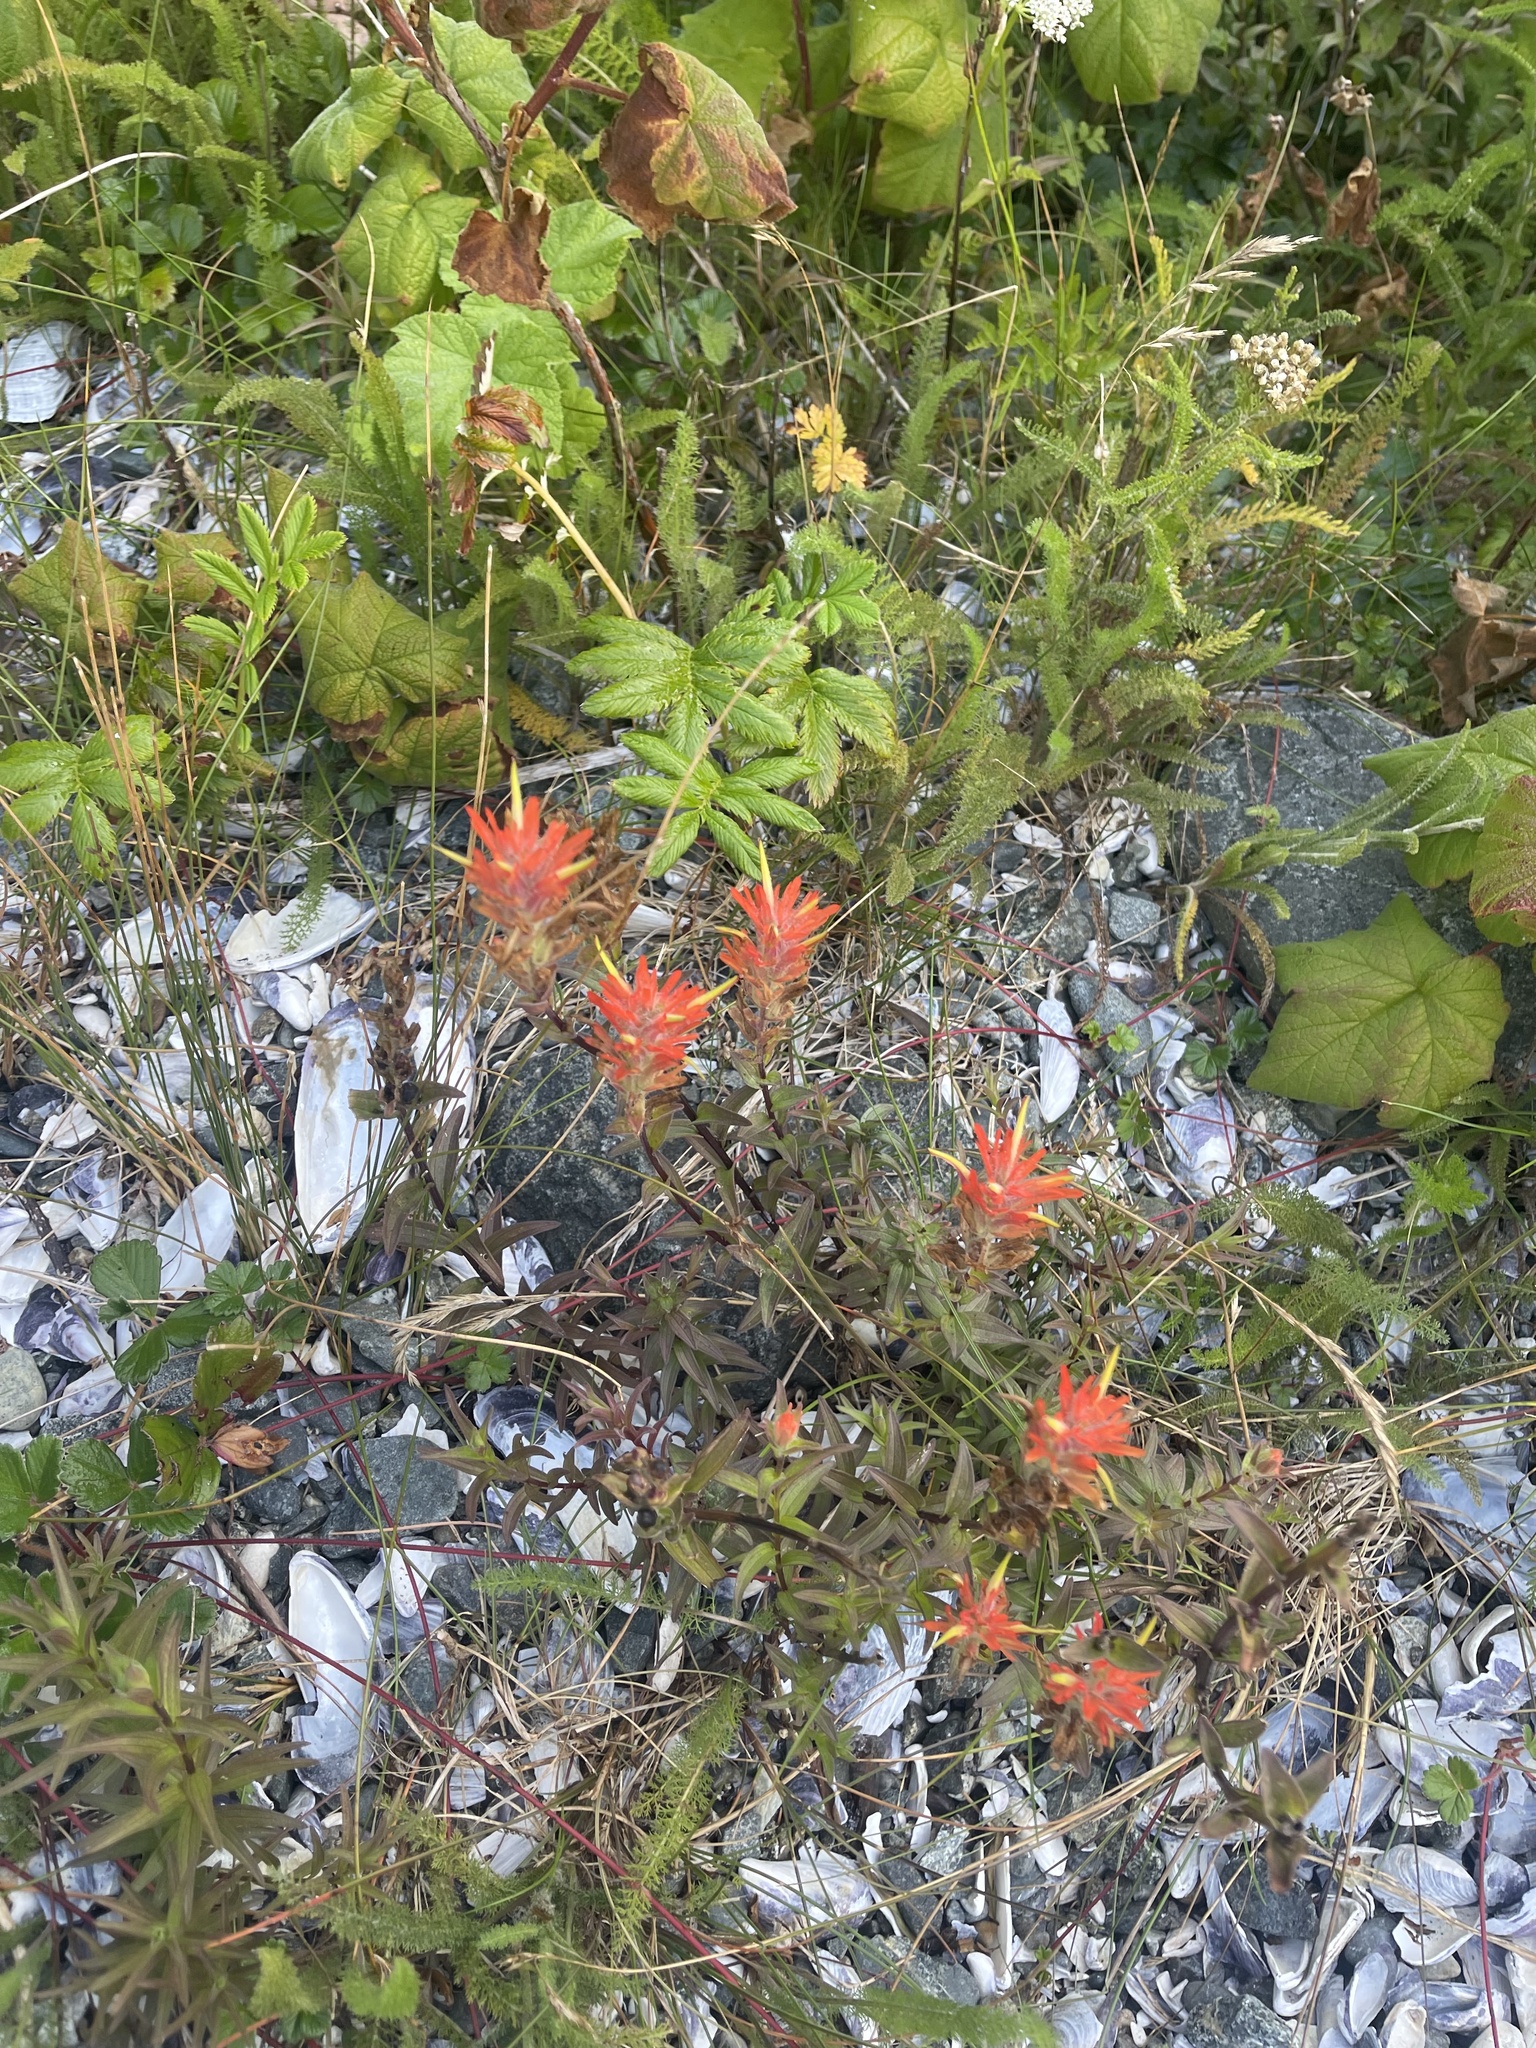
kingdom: Plantae
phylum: Tracheophyta
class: Magnoliopsida
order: Lamiales
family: Orobanchaceae
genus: Castilleja
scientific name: Castilleja miniata
